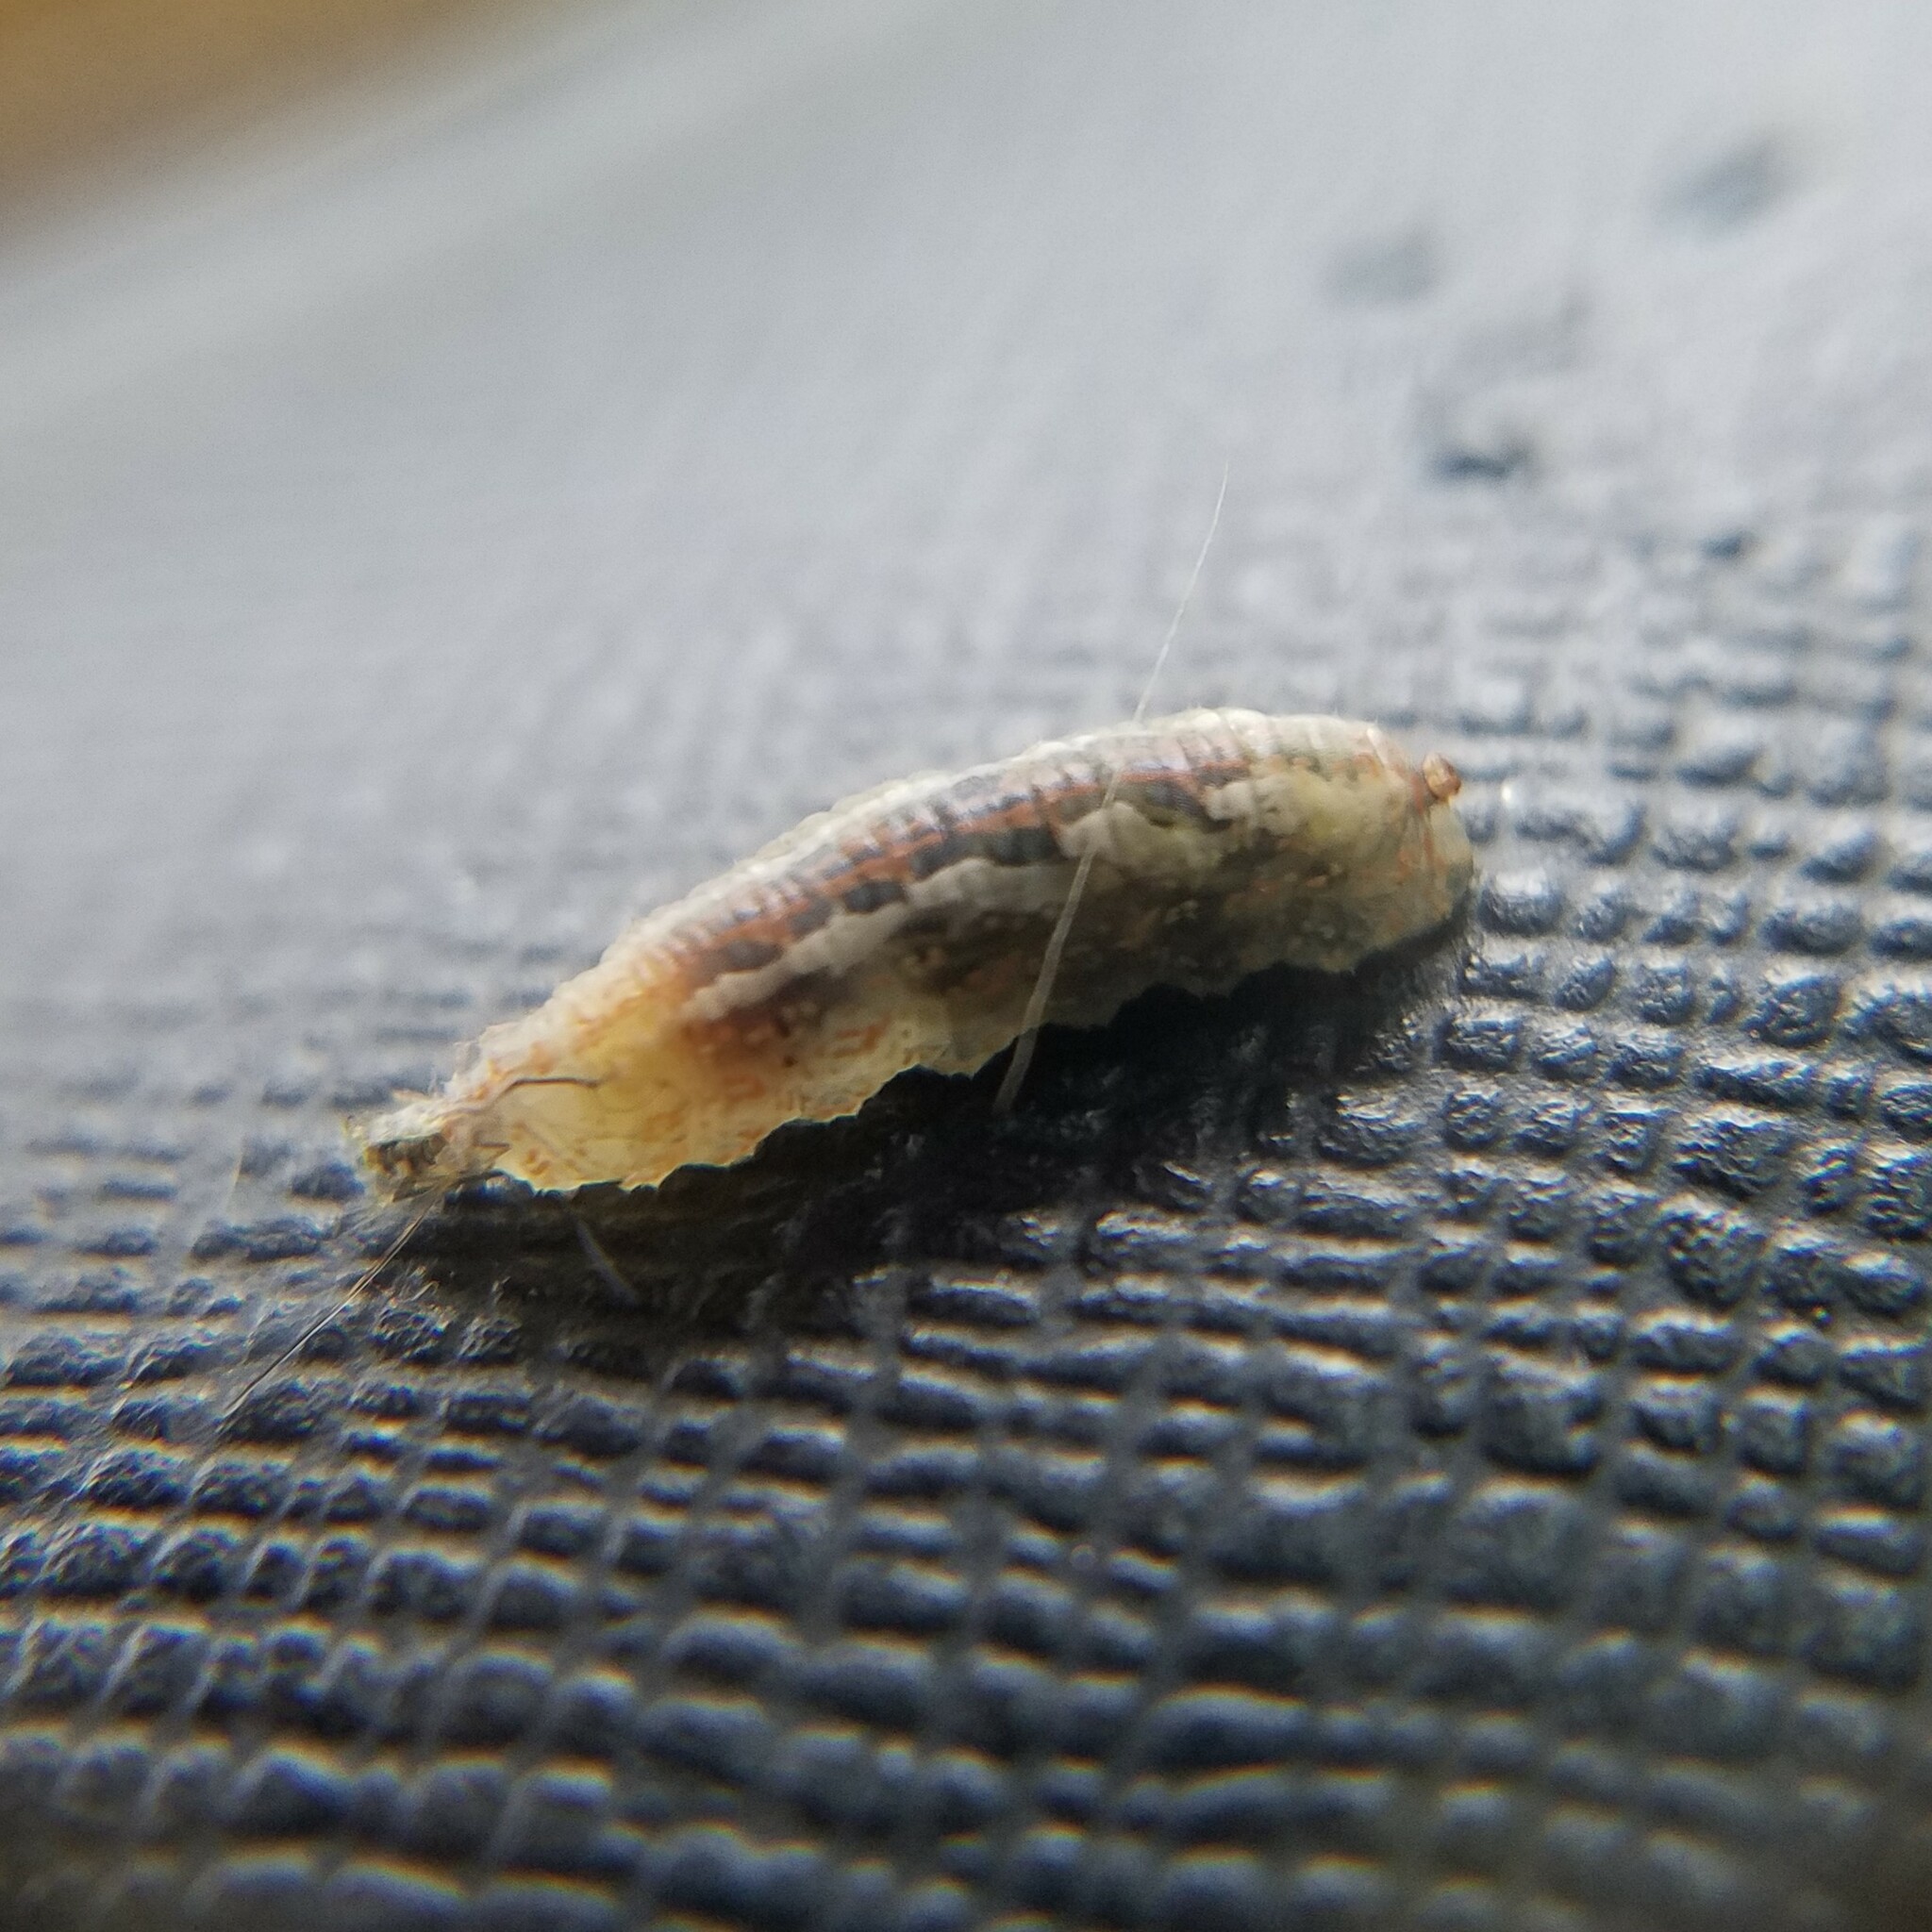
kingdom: Animalia
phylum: Arthropoda
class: Insecta
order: Diptera
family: Syrphidae
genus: Syrphus
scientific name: Syrphus
